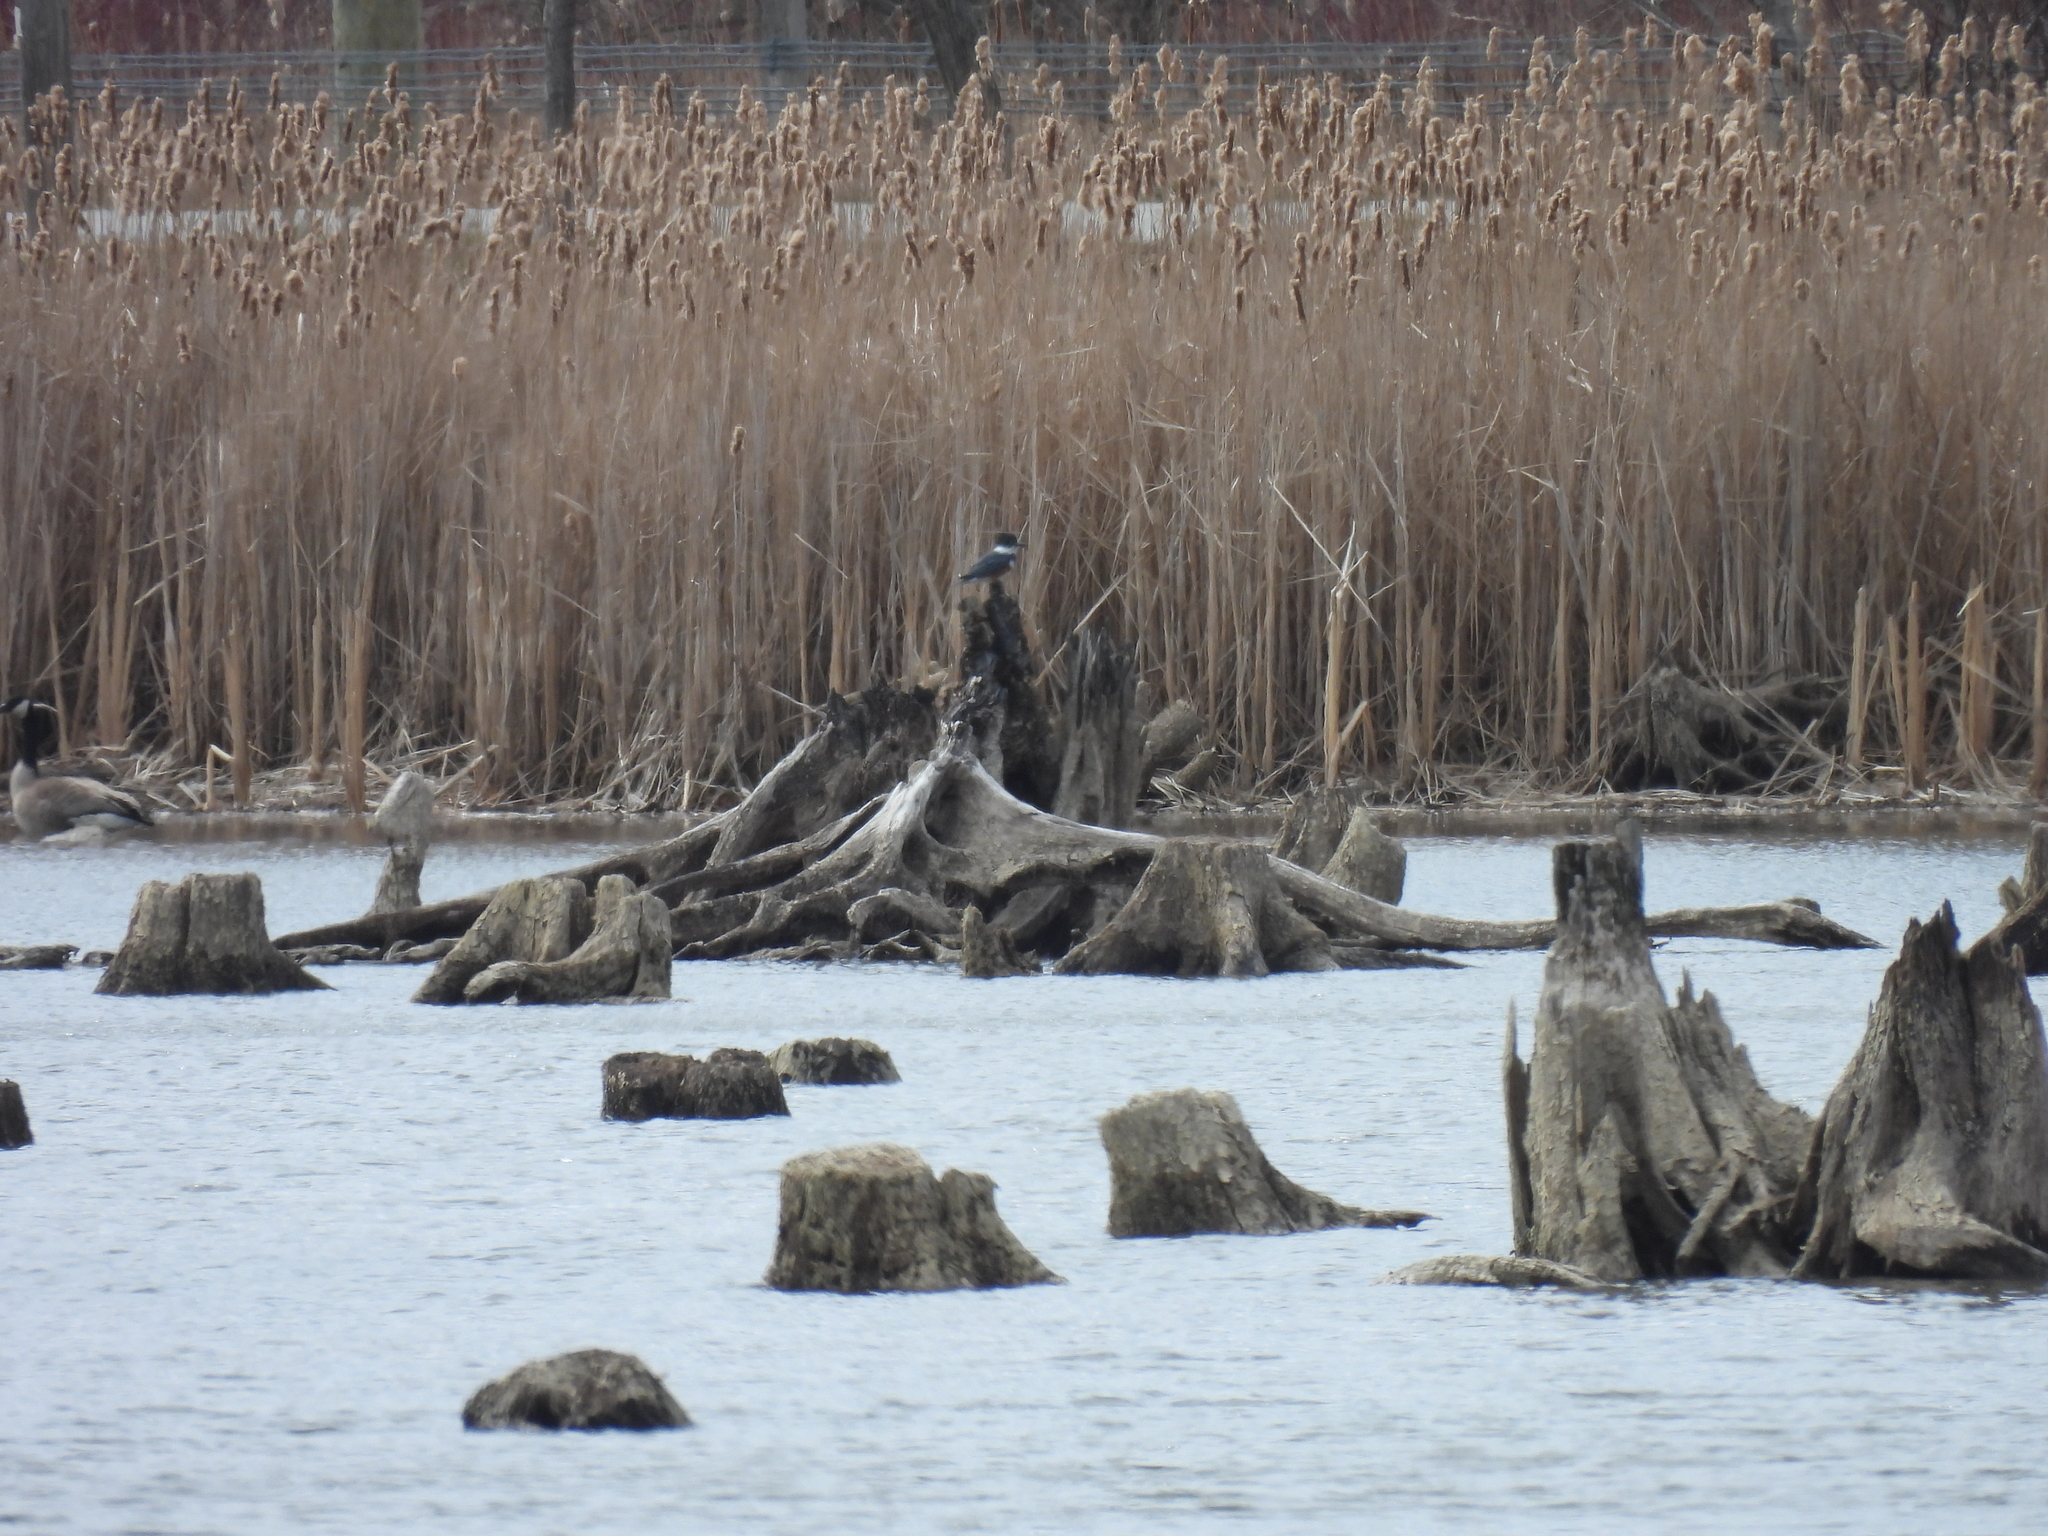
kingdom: Animalia
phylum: Chordata
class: Aves
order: Coraciiformes
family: Alcedinidae
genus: Megaceryle
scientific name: Megaceryle alcyon
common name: Belted kingfisher
